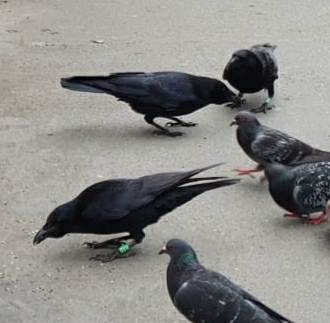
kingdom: Animalia
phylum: Chordata
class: Aves
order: Passeriformes
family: Corvidae
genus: Corvus
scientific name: Corvus corone
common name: Carrion crow
